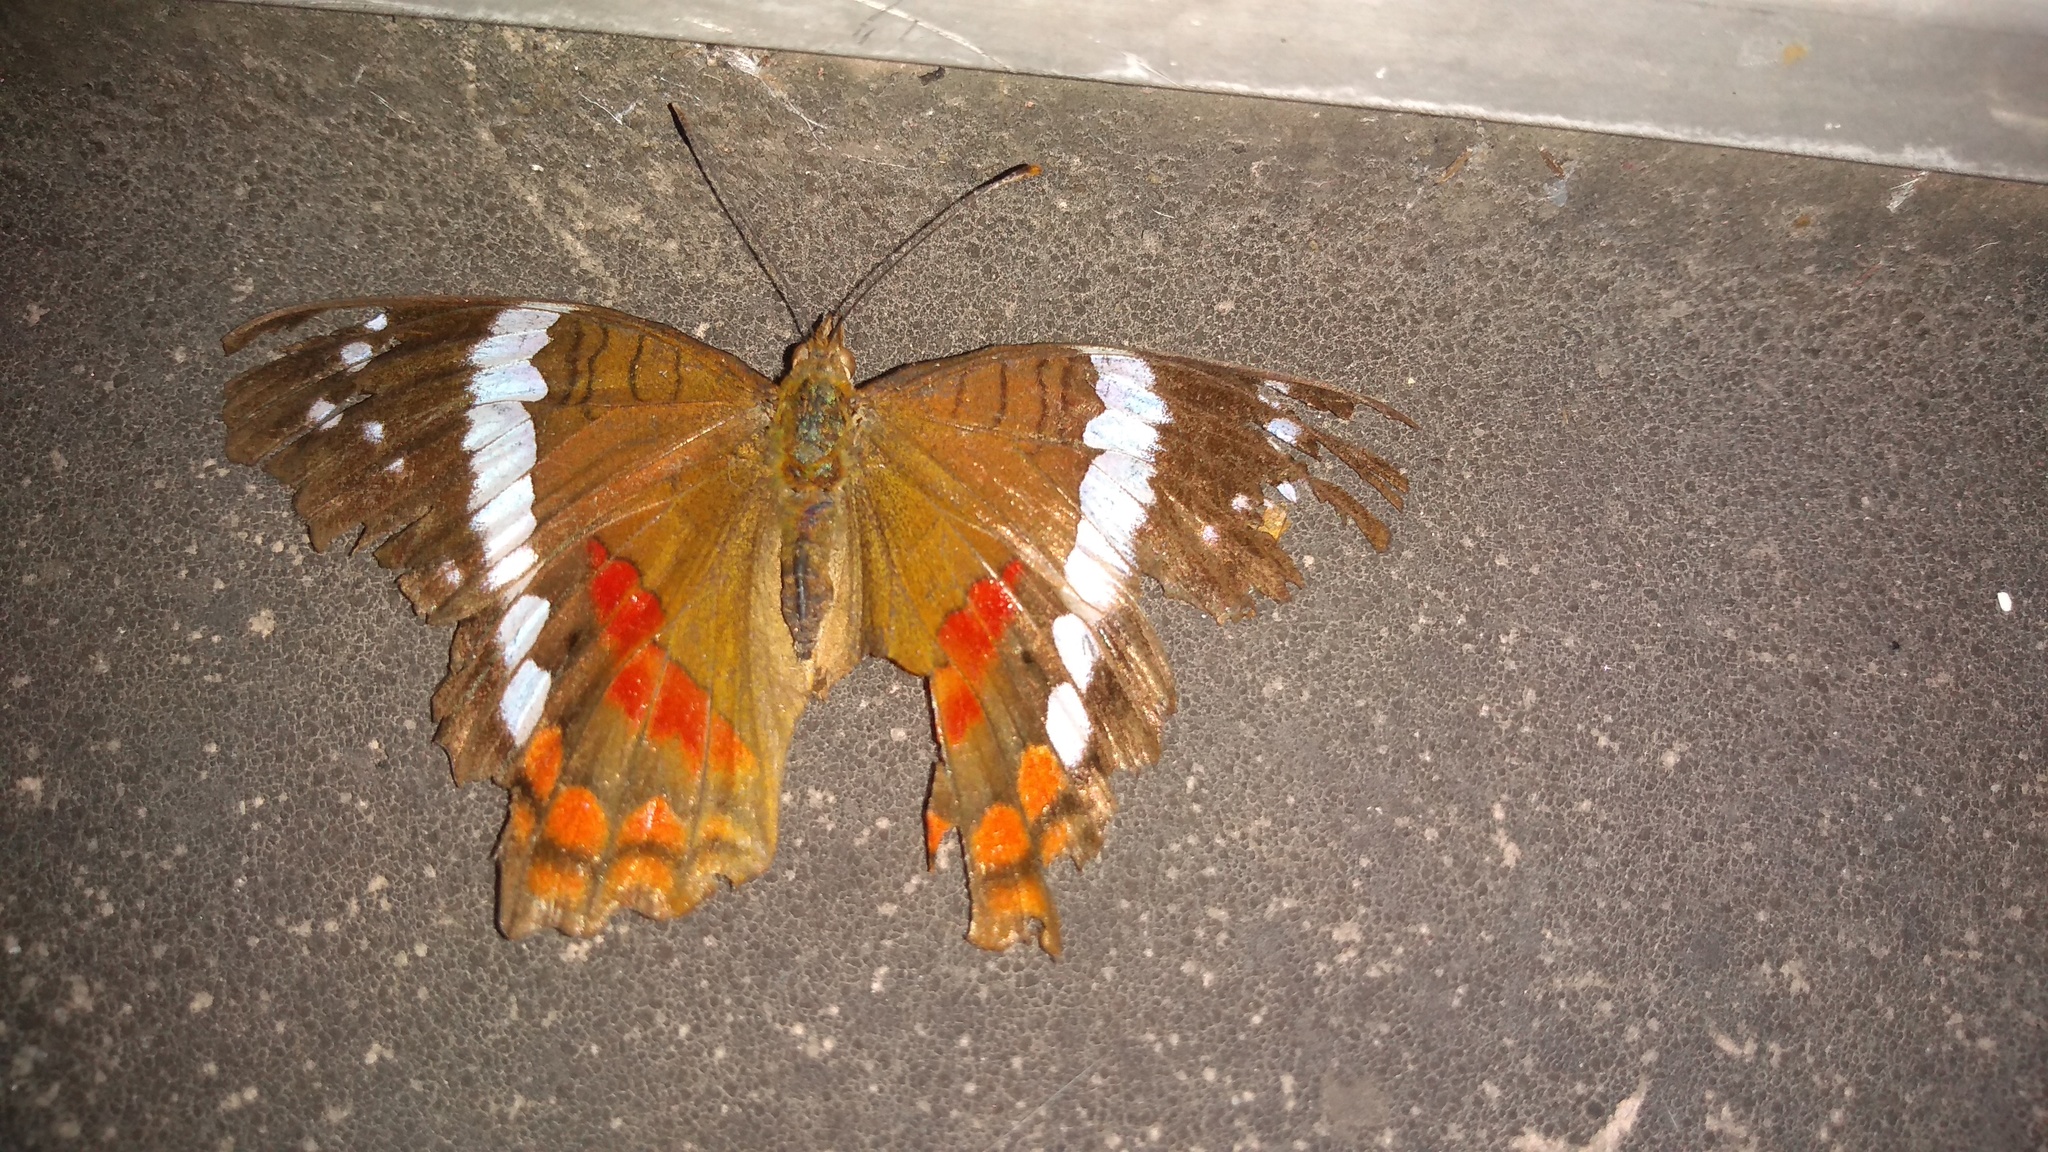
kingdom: Animalia
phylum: Arthropoda
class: Insecta
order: Lepidoptera
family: Nymphalidae
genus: Anartia
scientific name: Anartia fatima
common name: Banded peacock
